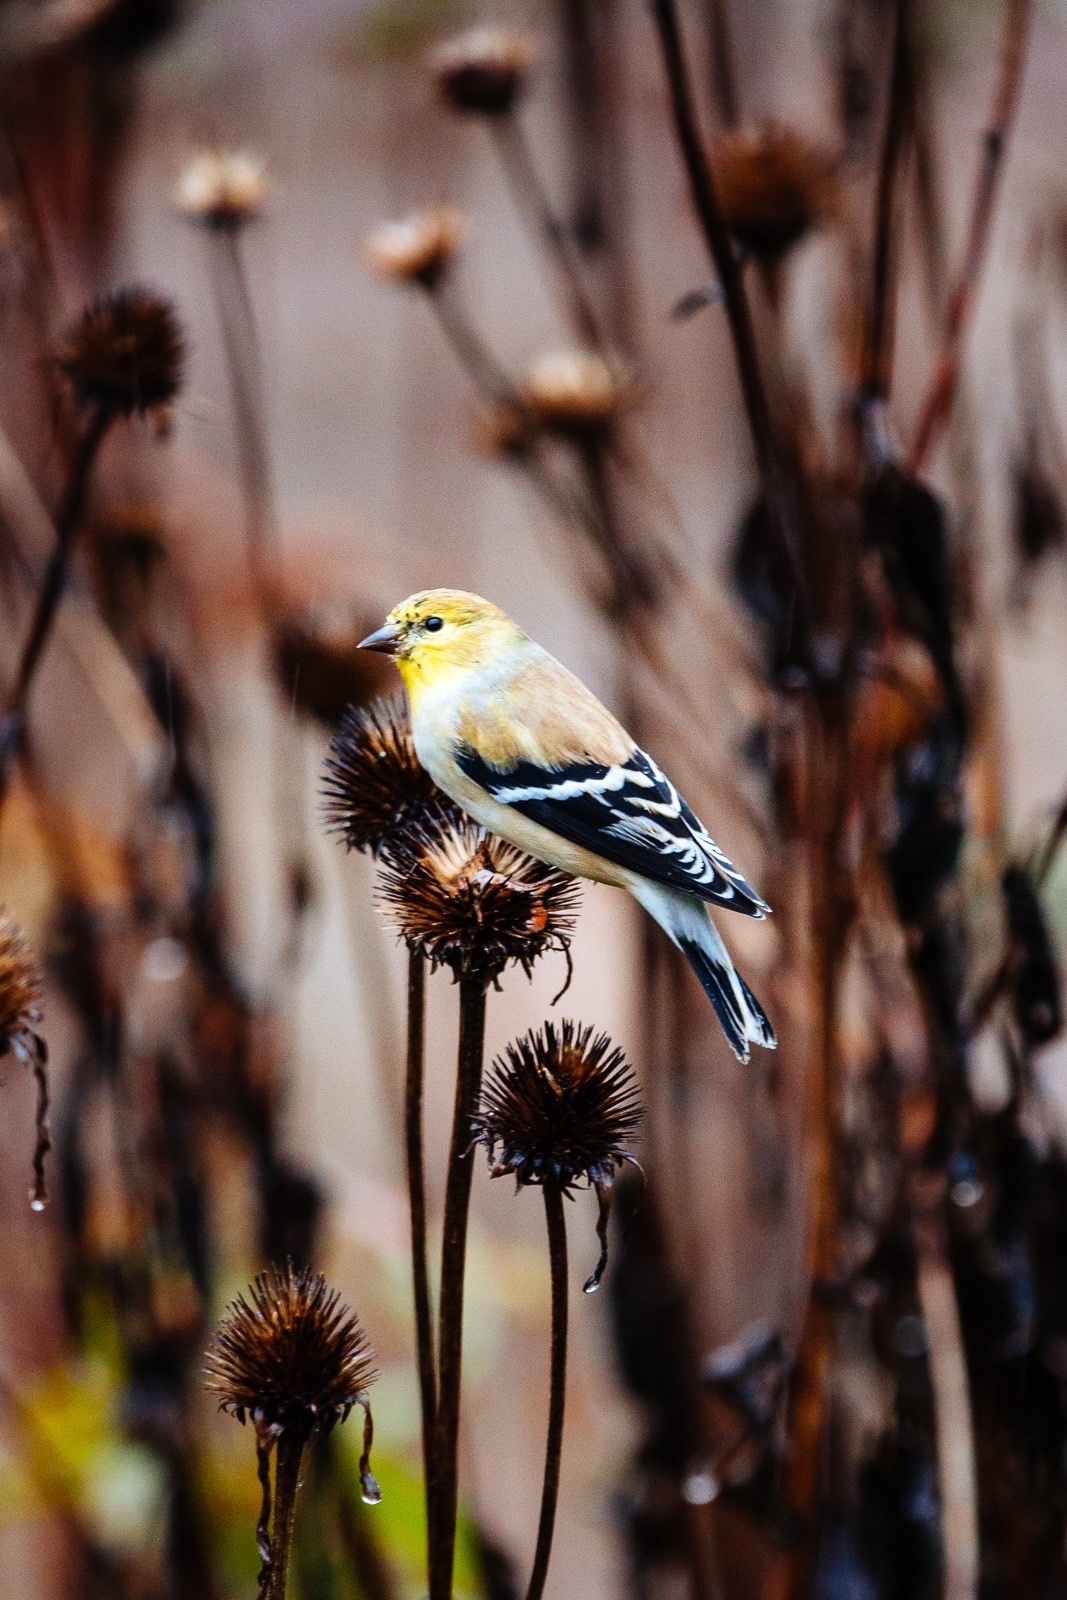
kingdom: Animalia
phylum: Chordata
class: Aves
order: Passeriformes
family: Fringillidae
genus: Spinus
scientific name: Spinus tristis
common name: American goldfinch
